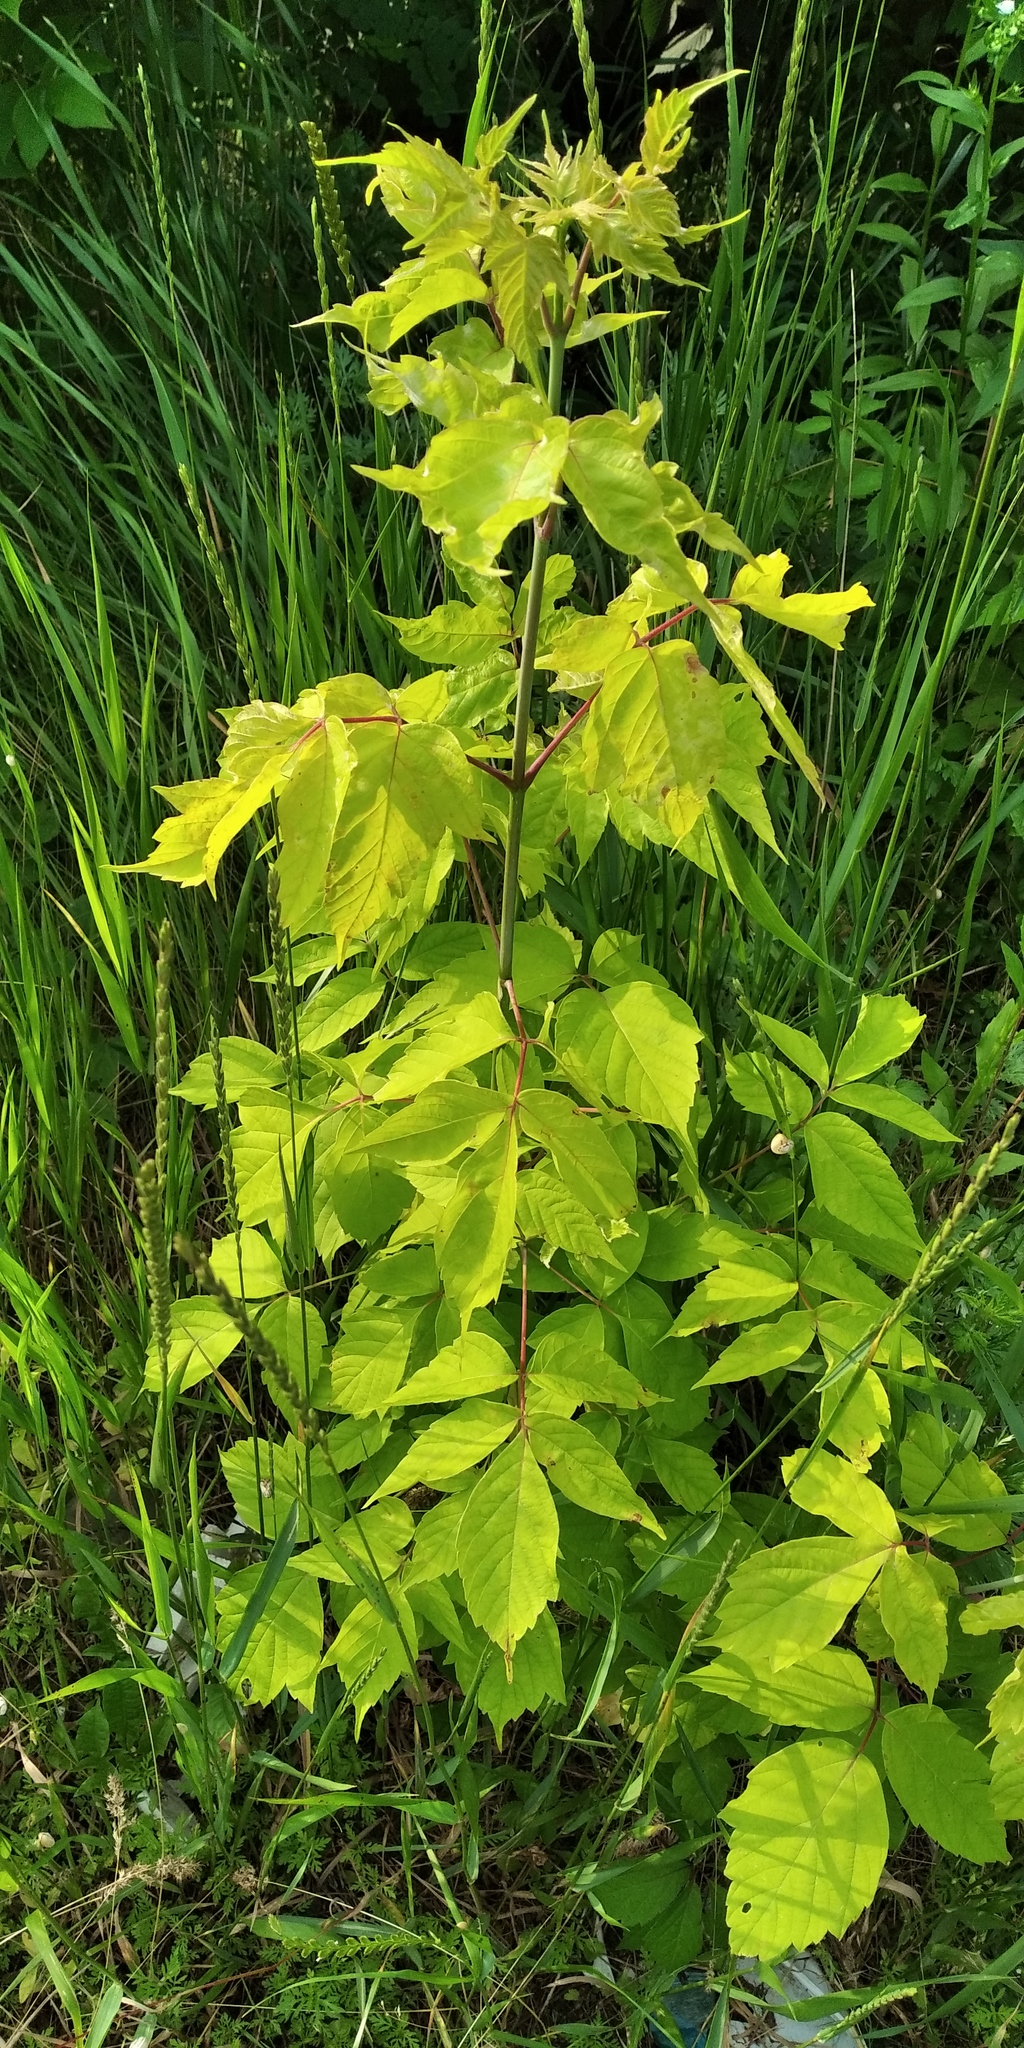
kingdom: Plantae
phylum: Tracheophyta
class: Magnoliopsida
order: Sapindales
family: Sapindaceae
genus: Acer
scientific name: Acer negundo
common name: Ashleaf maple
